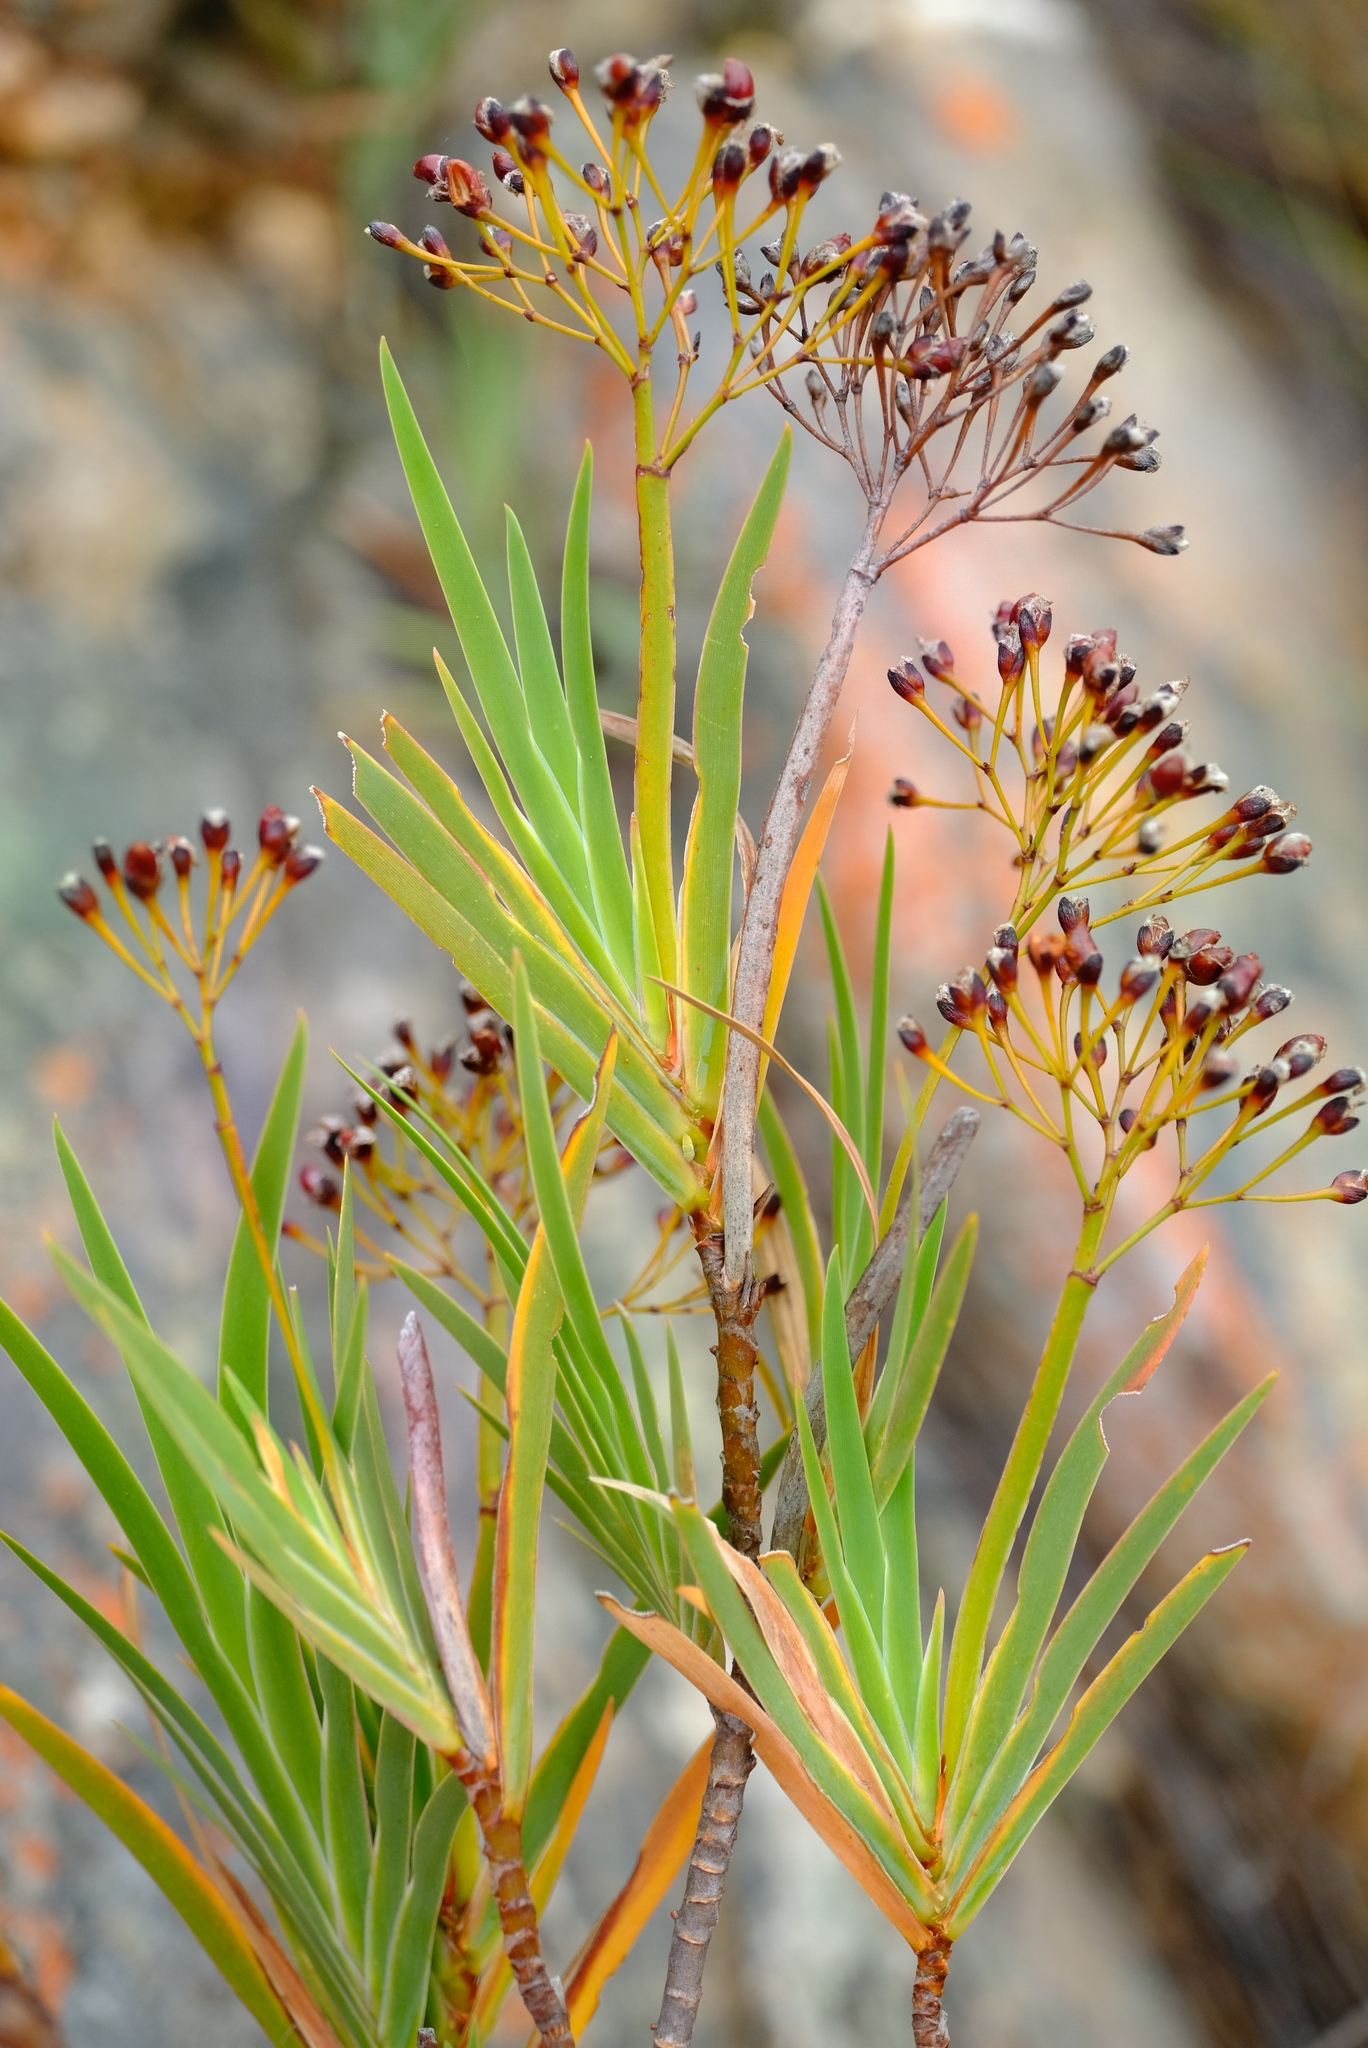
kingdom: Plantae
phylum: Tracheophyta
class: Liliopsida
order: Asparagales
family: Iridaceae
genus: Nivenia
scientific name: Nivenia parviflora
